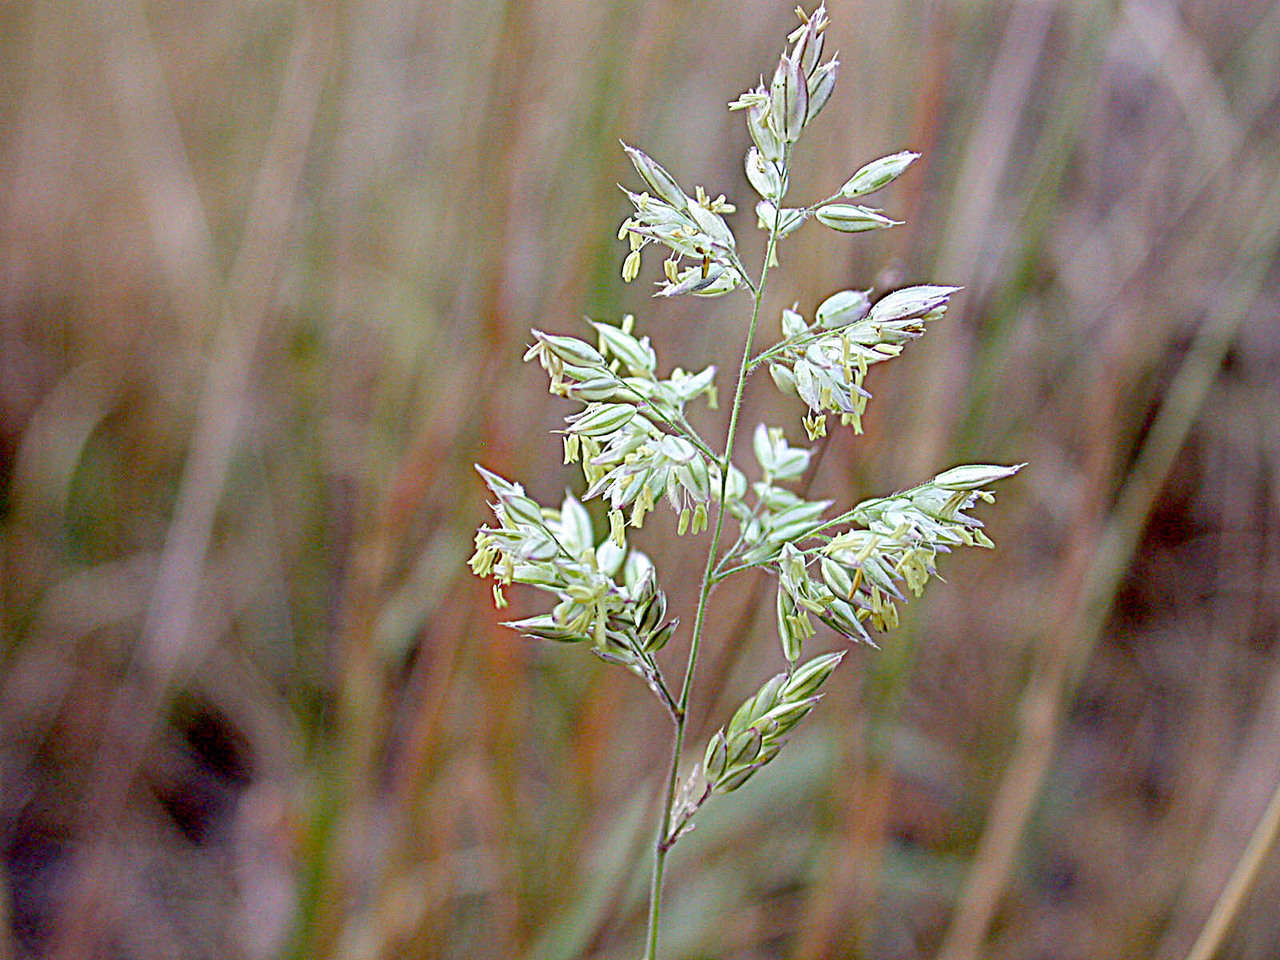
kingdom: Plantae
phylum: Tracheophyta
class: Liliopsida
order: Poales
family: Poaceae
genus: Holcus
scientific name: Holcus lanatus
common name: Yorkshire-fog
